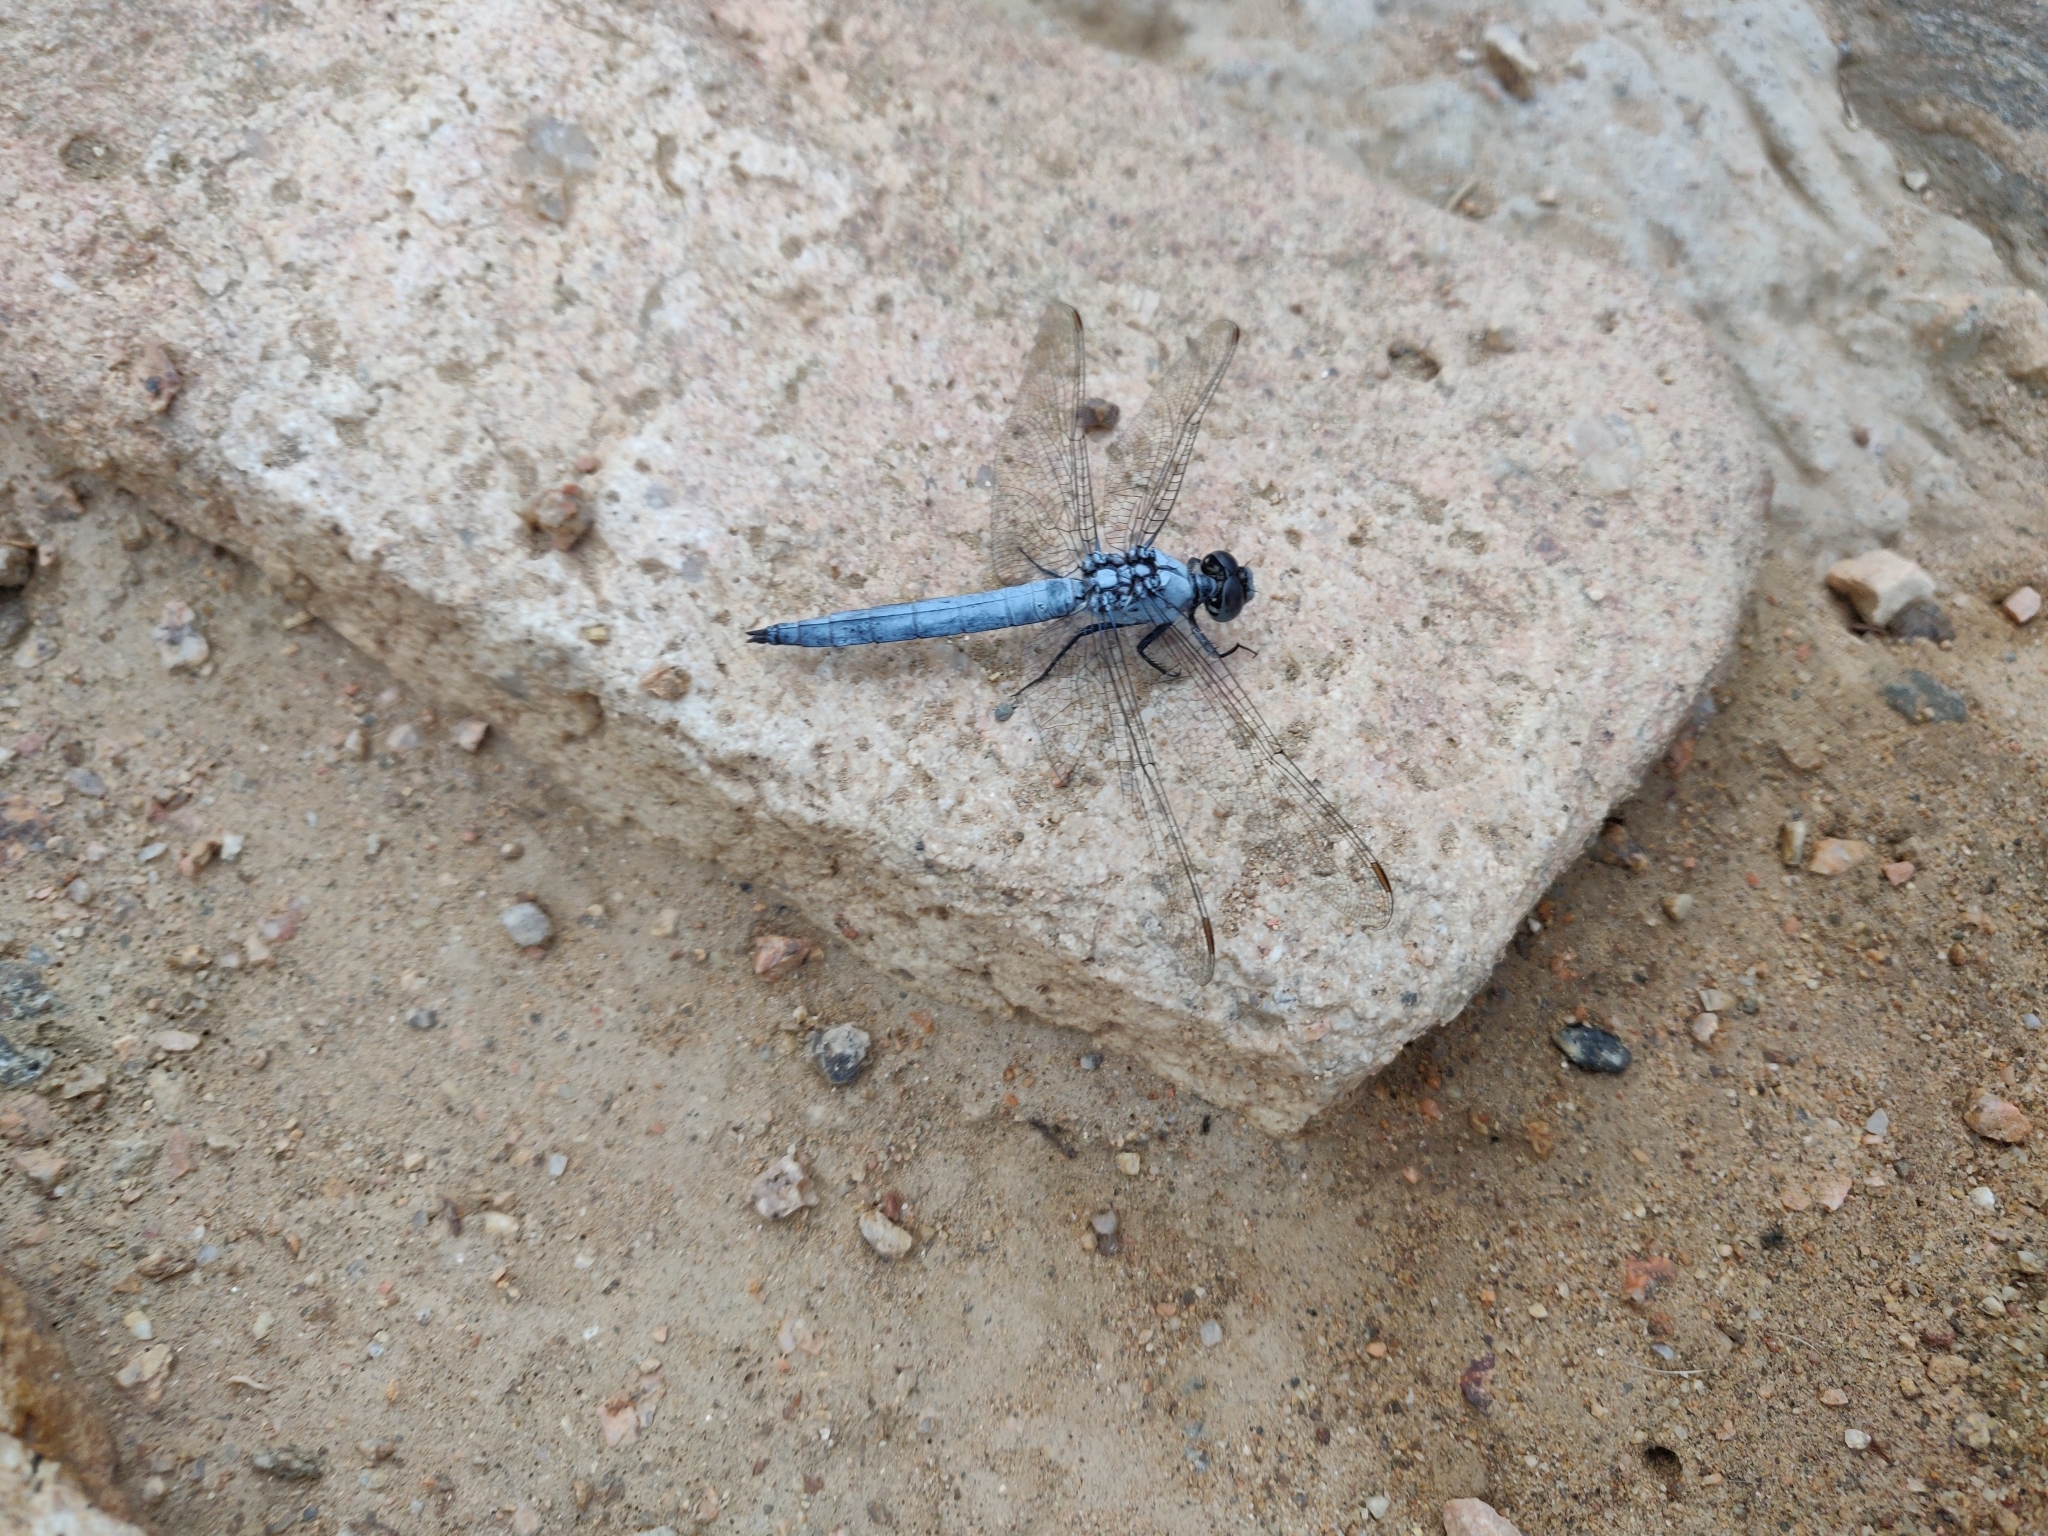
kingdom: Animalia
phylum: Arthropoda
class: Insecta
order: Odonata
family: Libellulidae
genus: Orthetrum
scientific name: Orthetrum brunneum
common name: Southern skimmer
